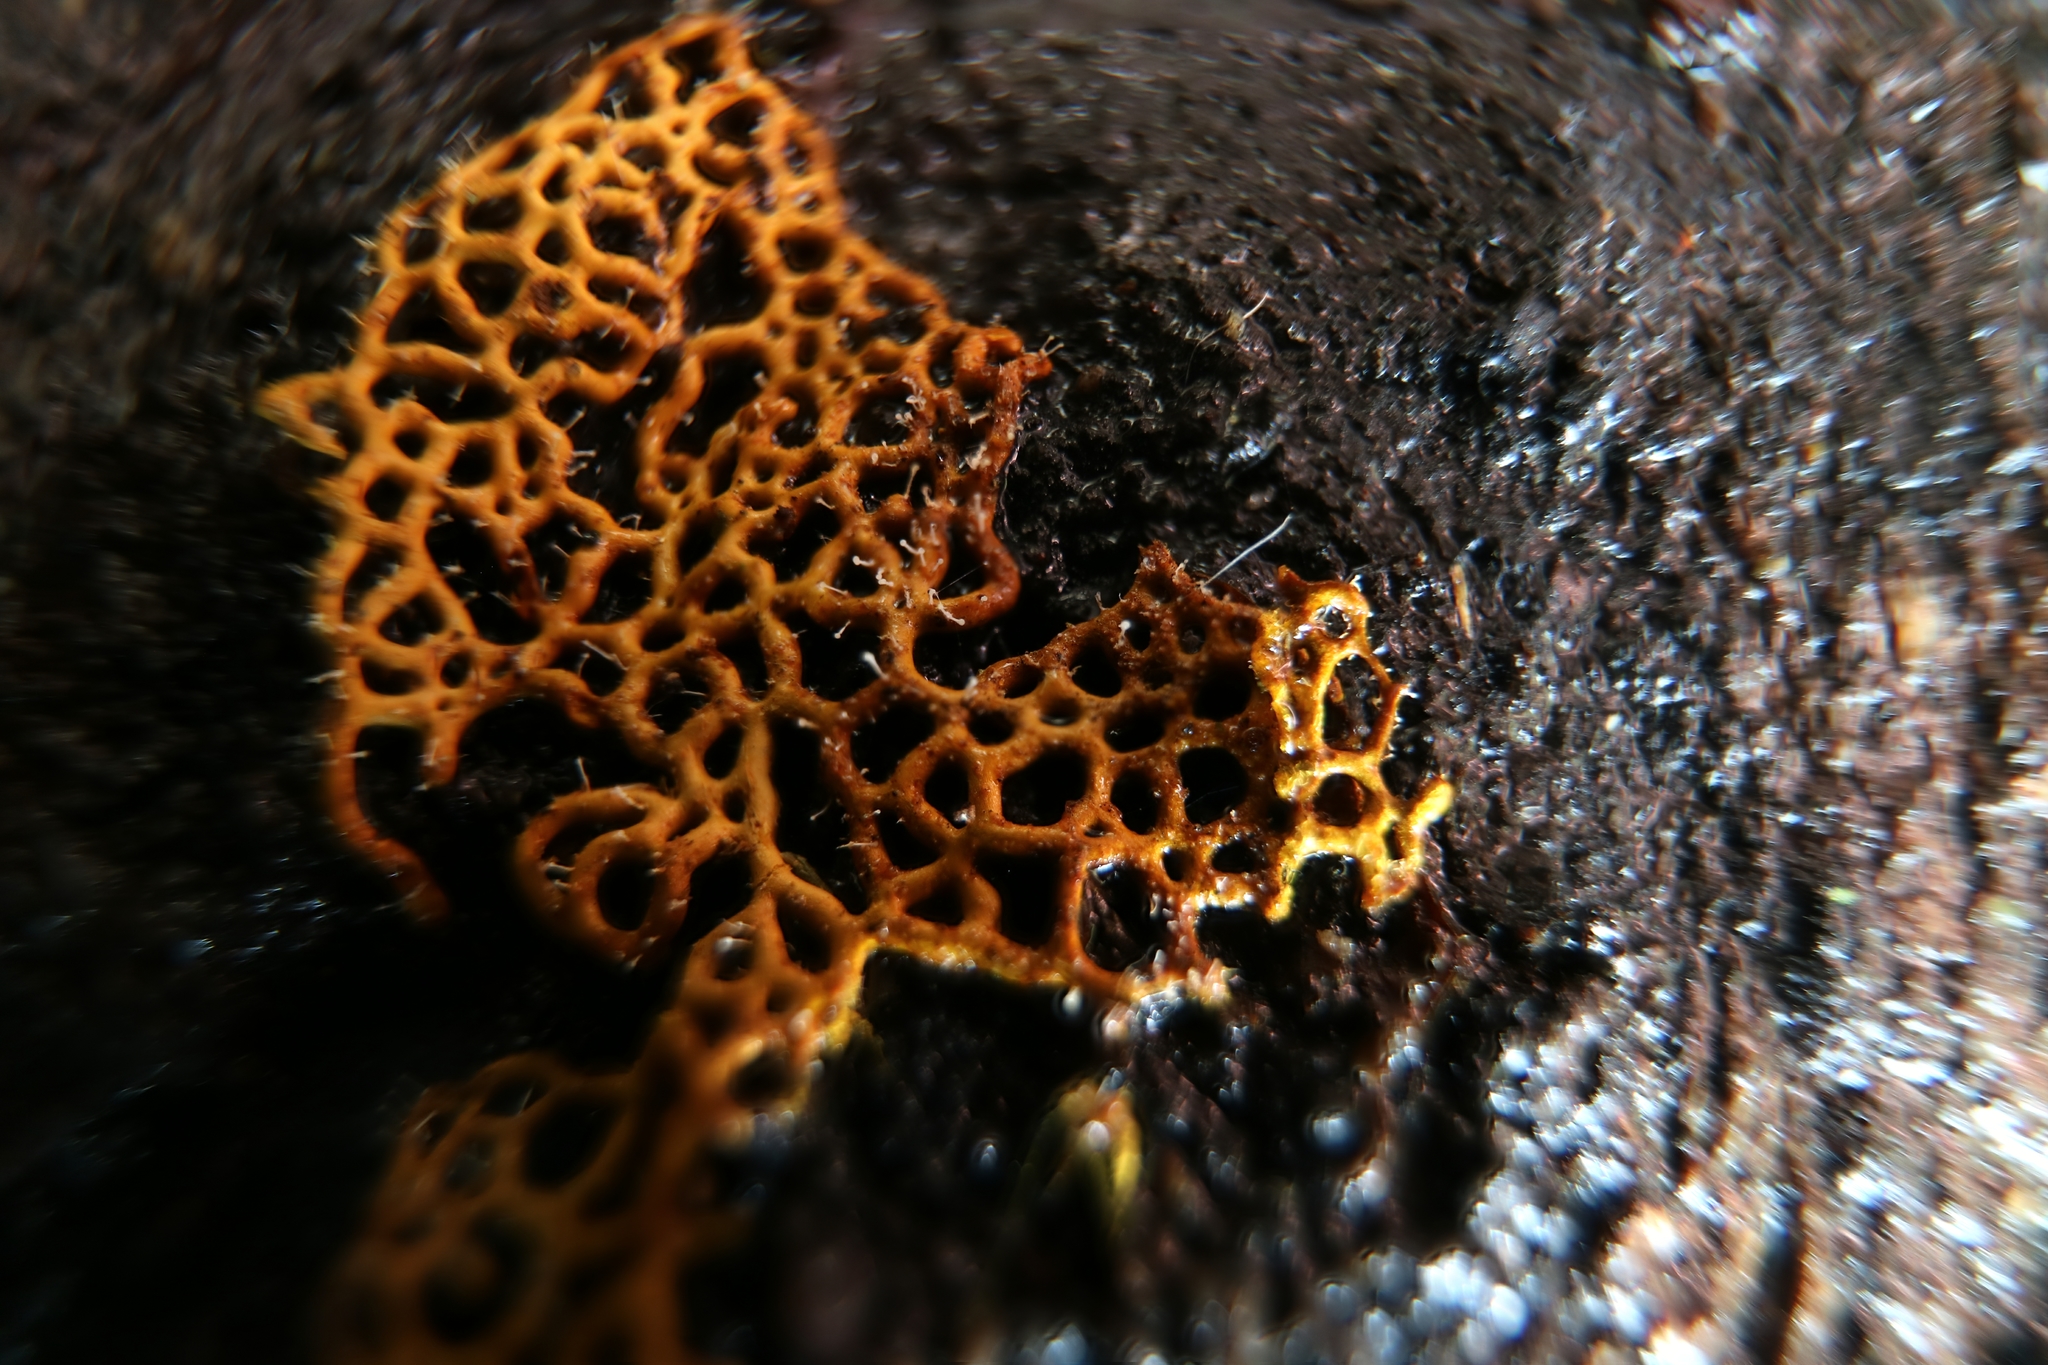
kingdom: Fungi
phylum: Ascomycota
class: Sordariomycetes
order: Hypocreales
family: Ophiocordycipitaceae
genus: Polycephalomyces
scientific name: Polycephalomyces tomentosus
